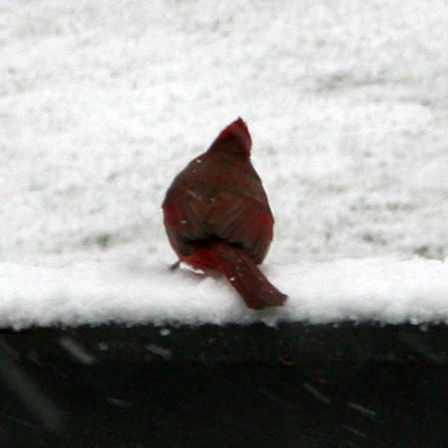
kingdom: Animalia
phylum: Chordata
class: Aves
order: Passeriformes
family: Cardinalidae
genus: Cardinalis
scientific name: Cardinalis cardinalis
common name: Northern cardinal
